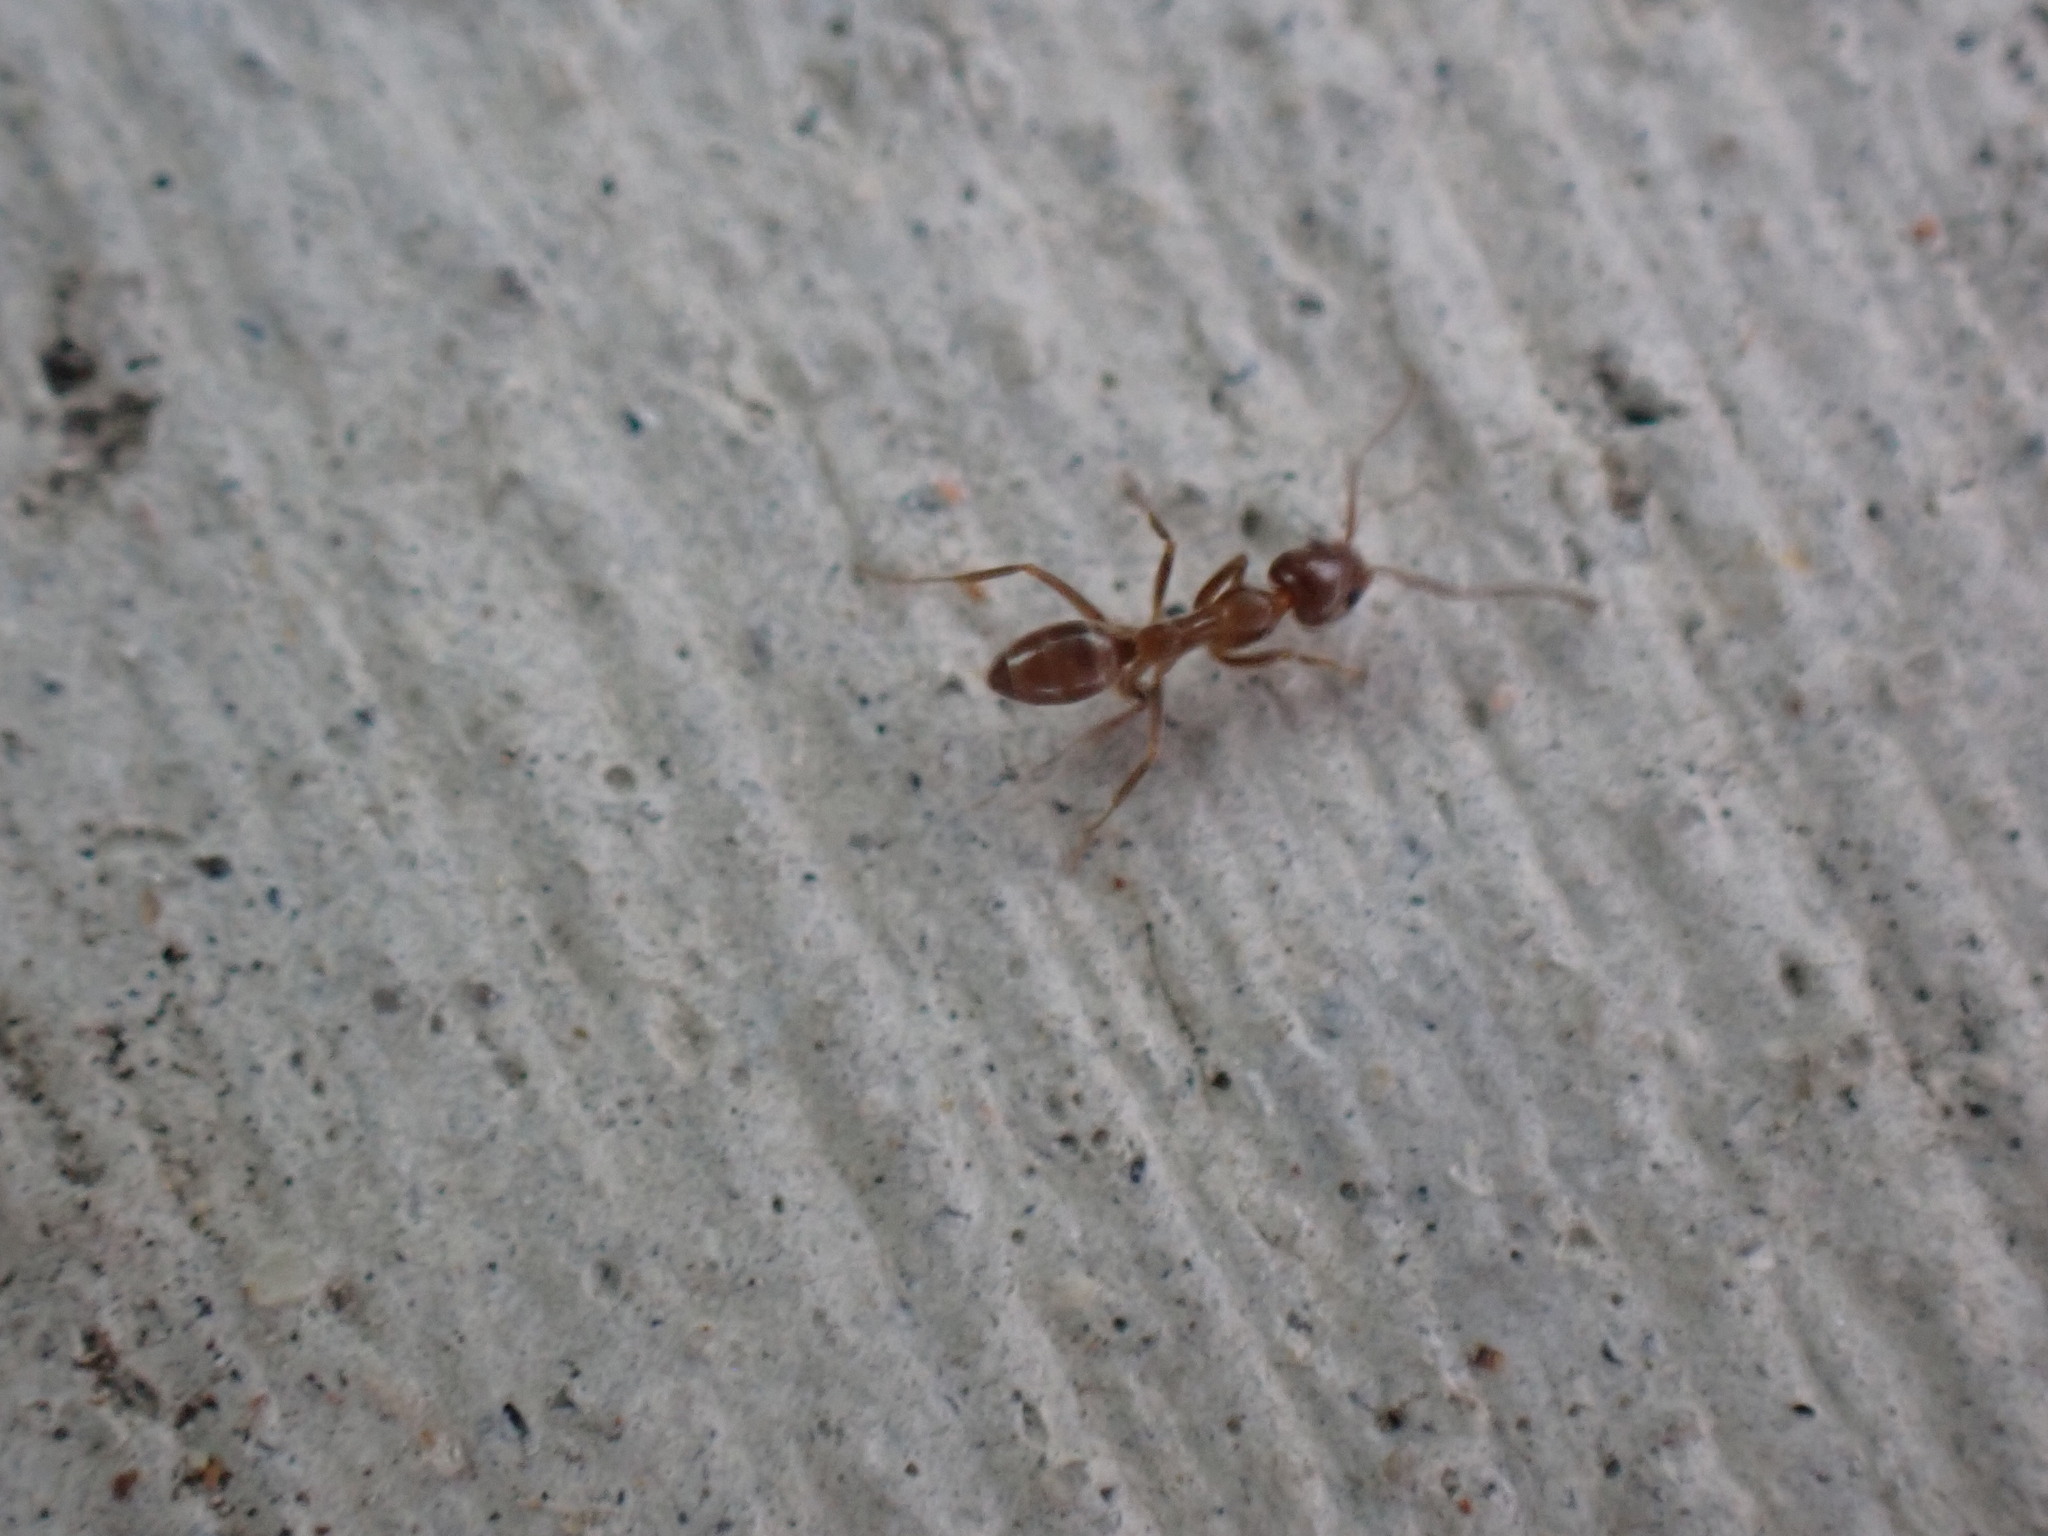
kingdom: Animalia
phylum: Arthropoda
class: Insecta
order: Hymenoptera
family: Formicidae
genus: Linepithema
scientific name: Linepithema humile
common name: Argentine ant
